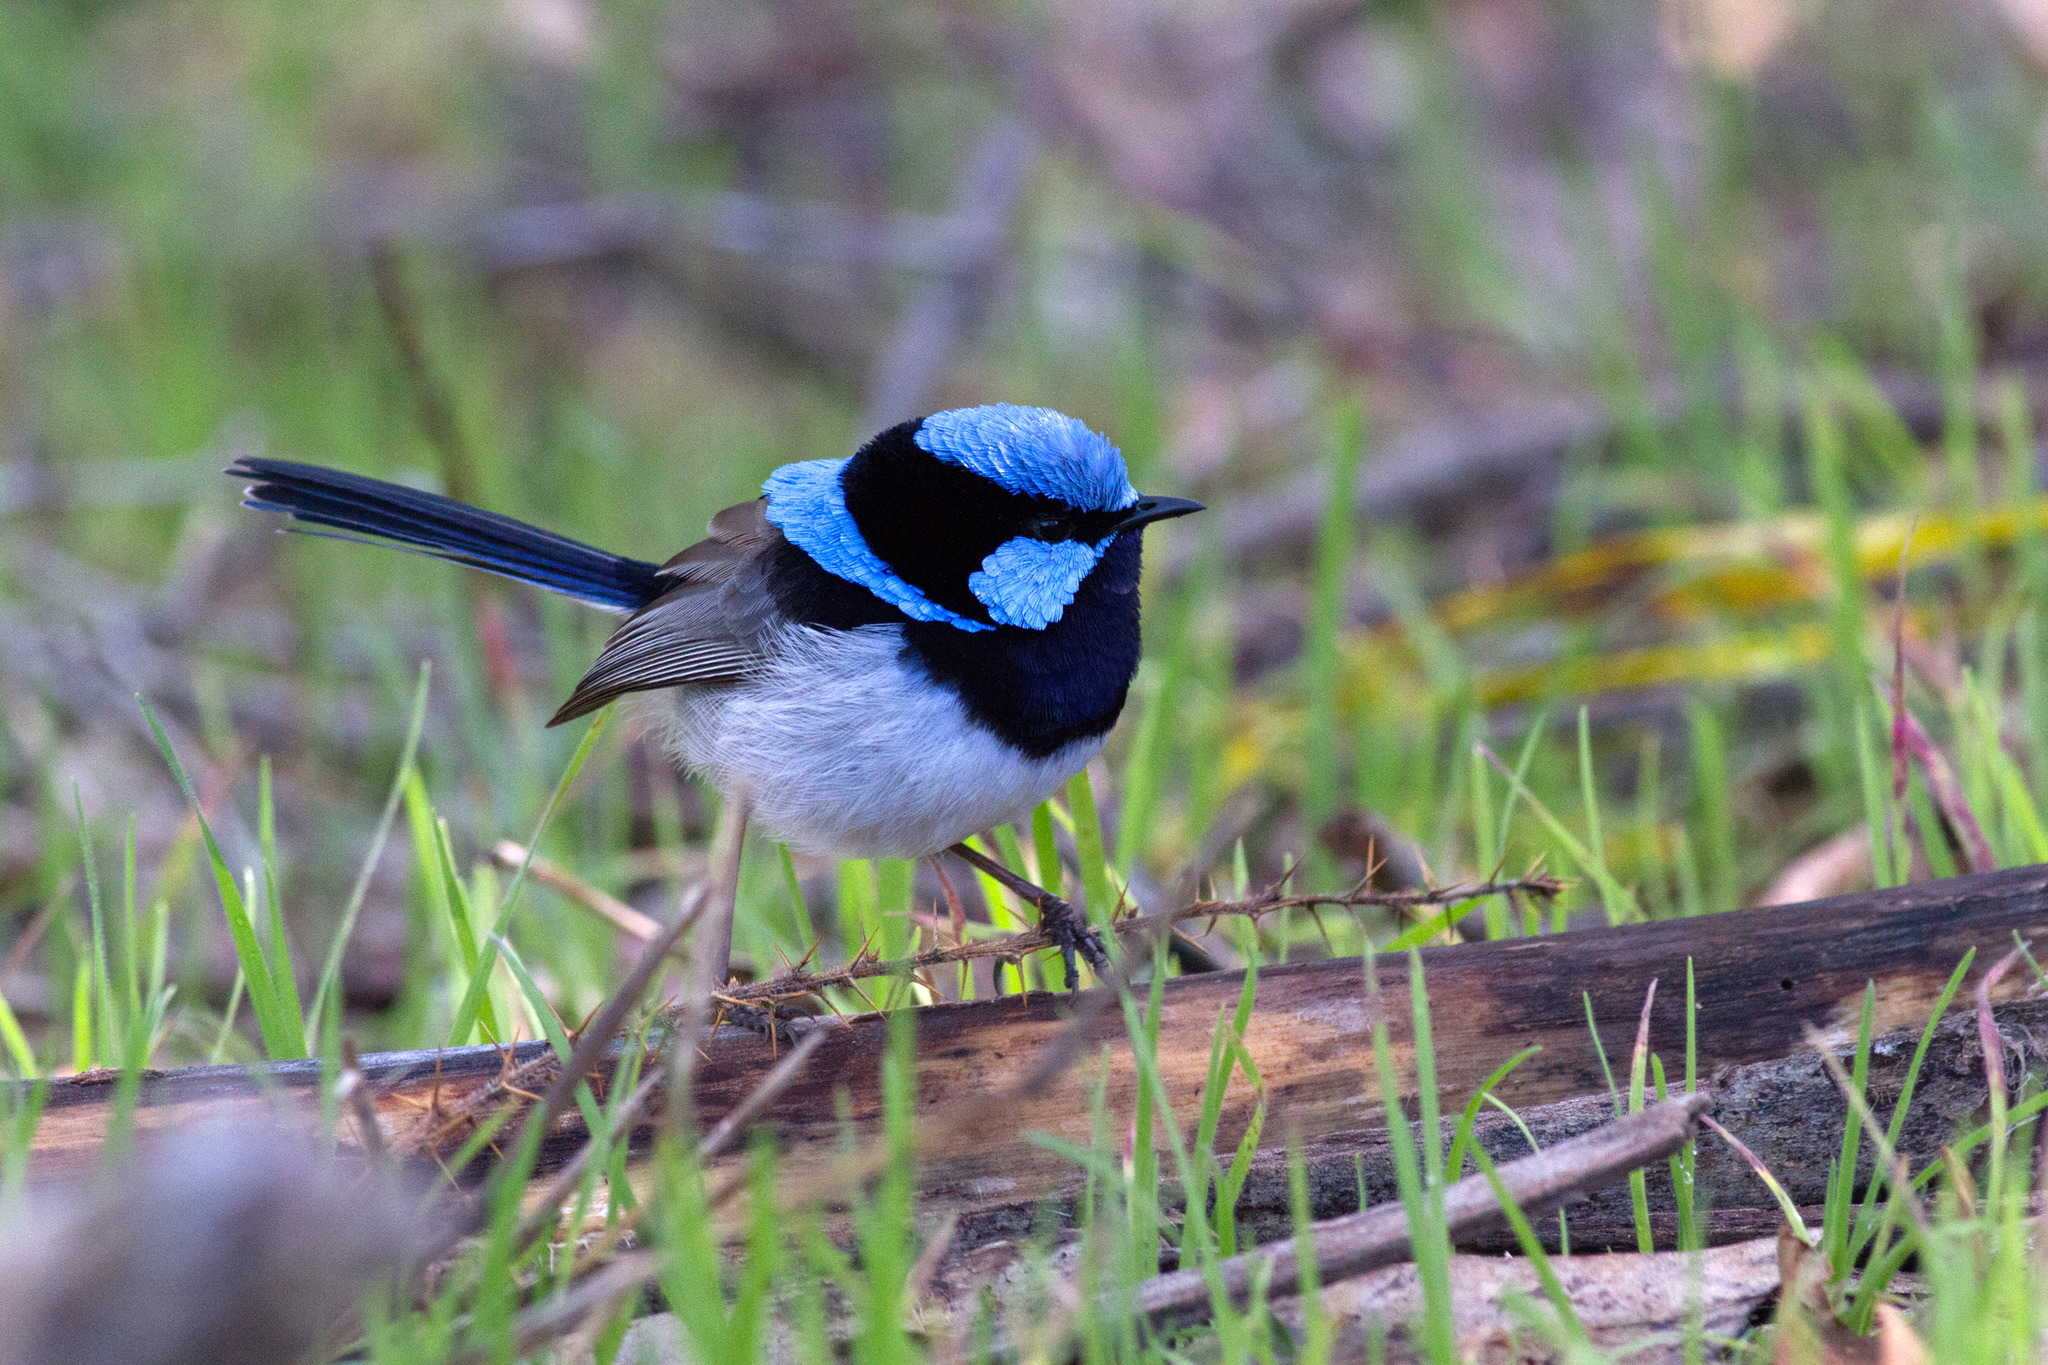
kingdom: Animalia
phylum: Chordata
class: Aves
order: Passeriformes
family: Maluridae
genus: Malurus
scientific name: Malurus cyaneus
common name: Superb fairywren
